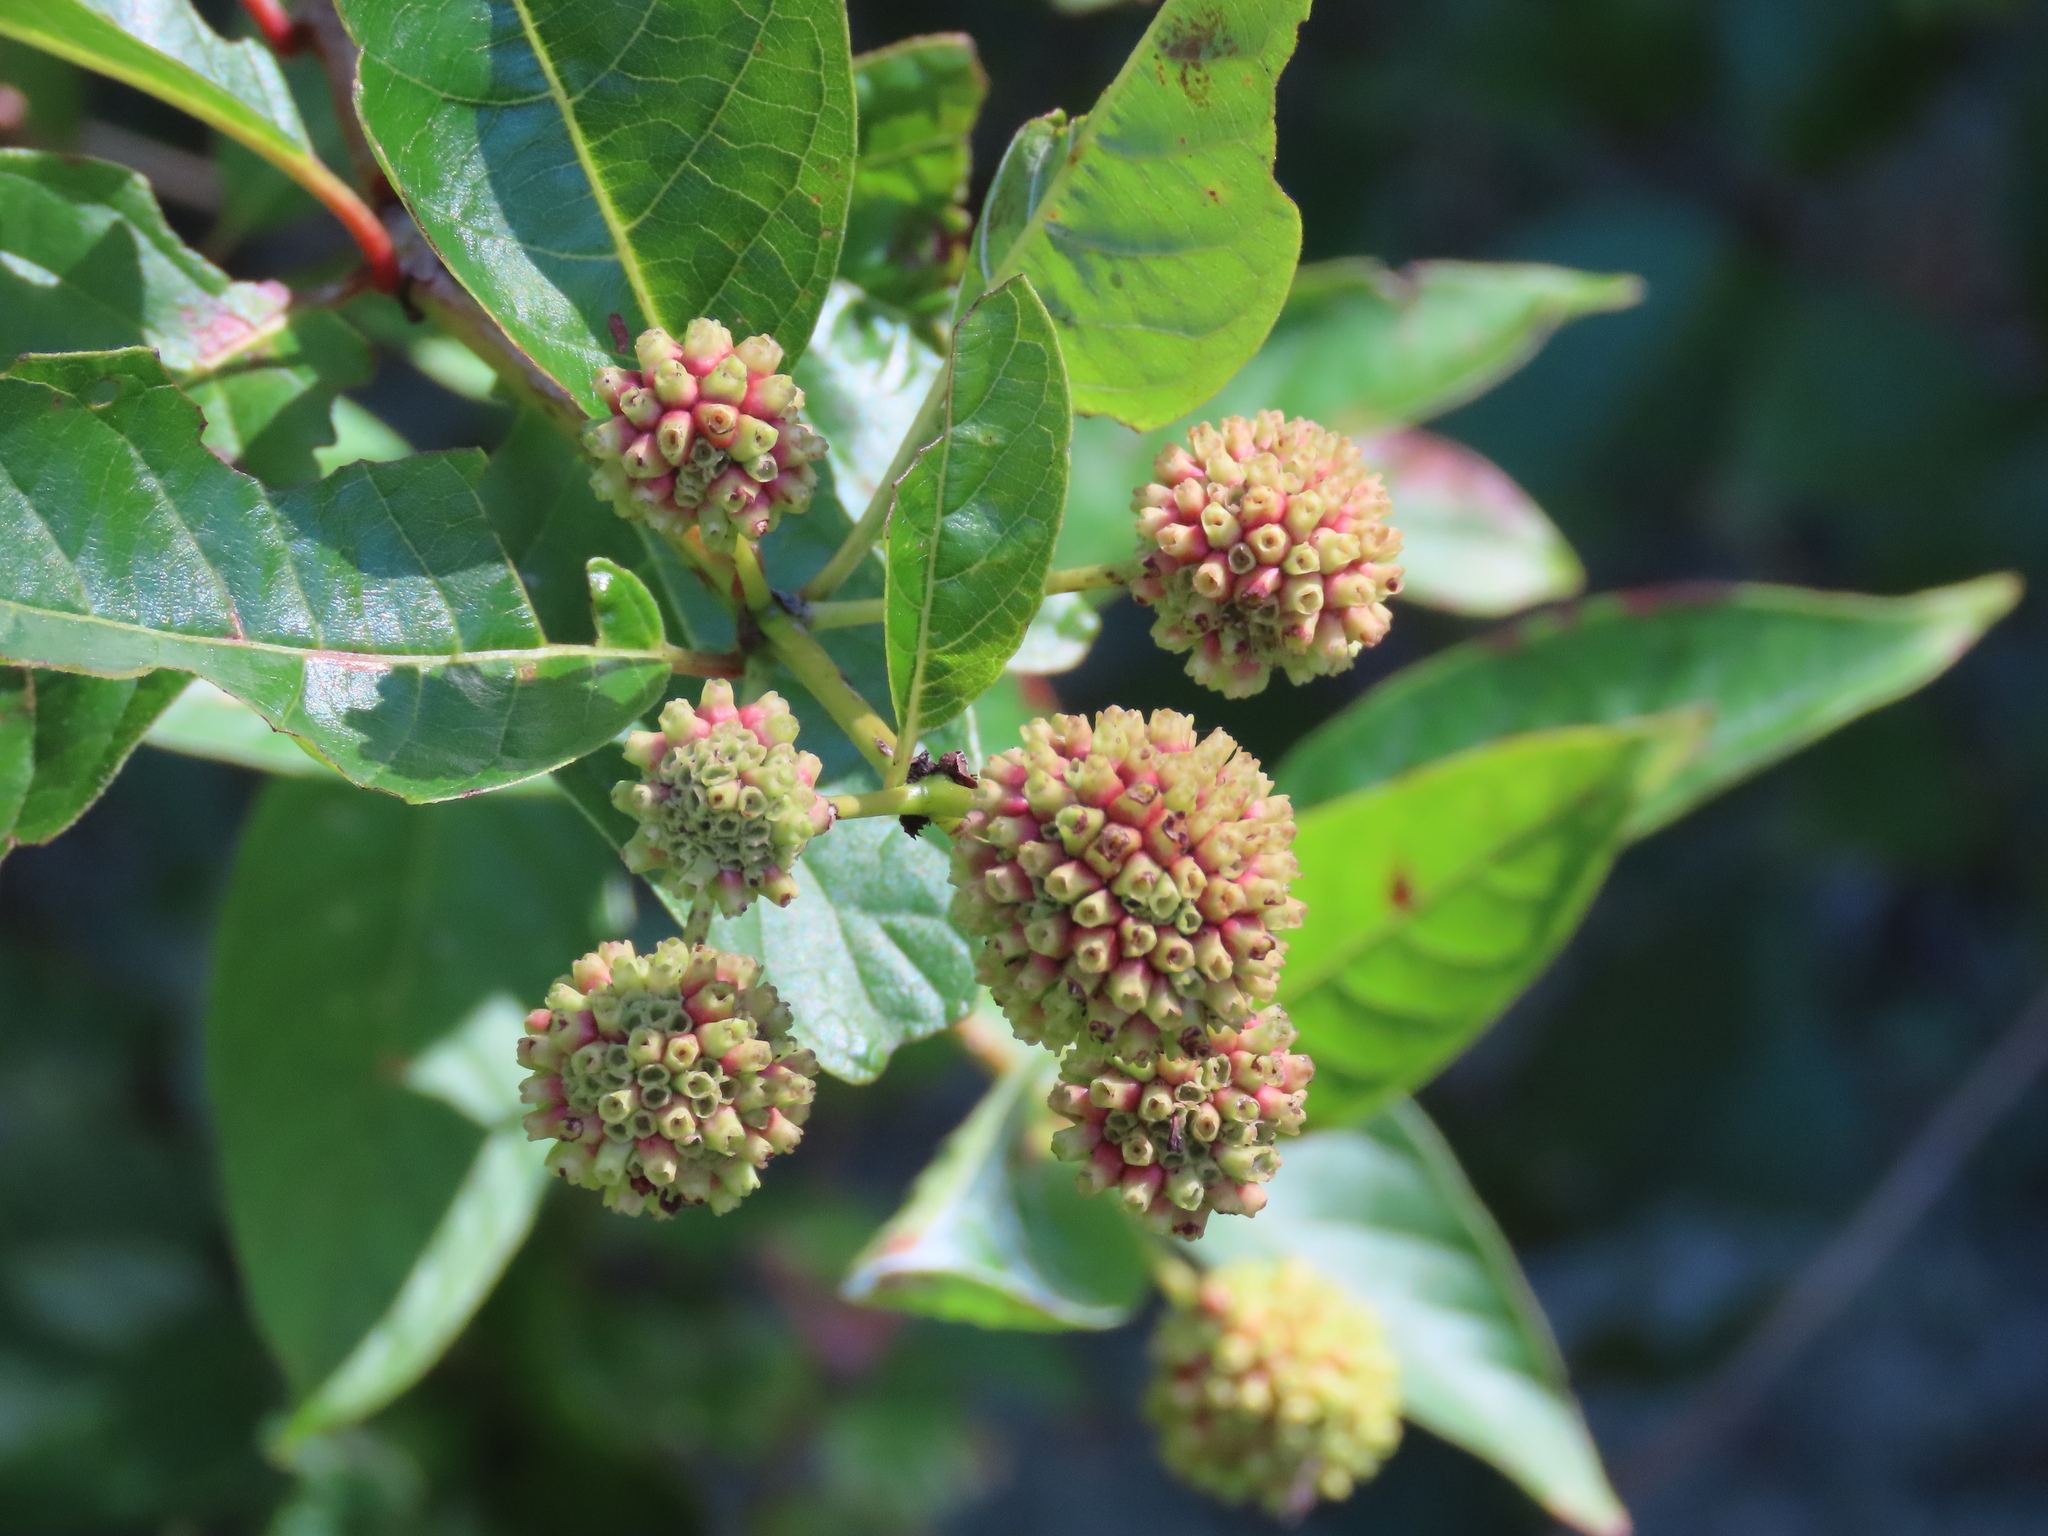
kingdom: Plantae
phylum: Tracheophyta
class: Magnoliopsida
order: Gentianales
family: Rubiaceae
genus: Cephalanthus
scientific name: Cephalanthus occidentalis
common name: Button-willow
